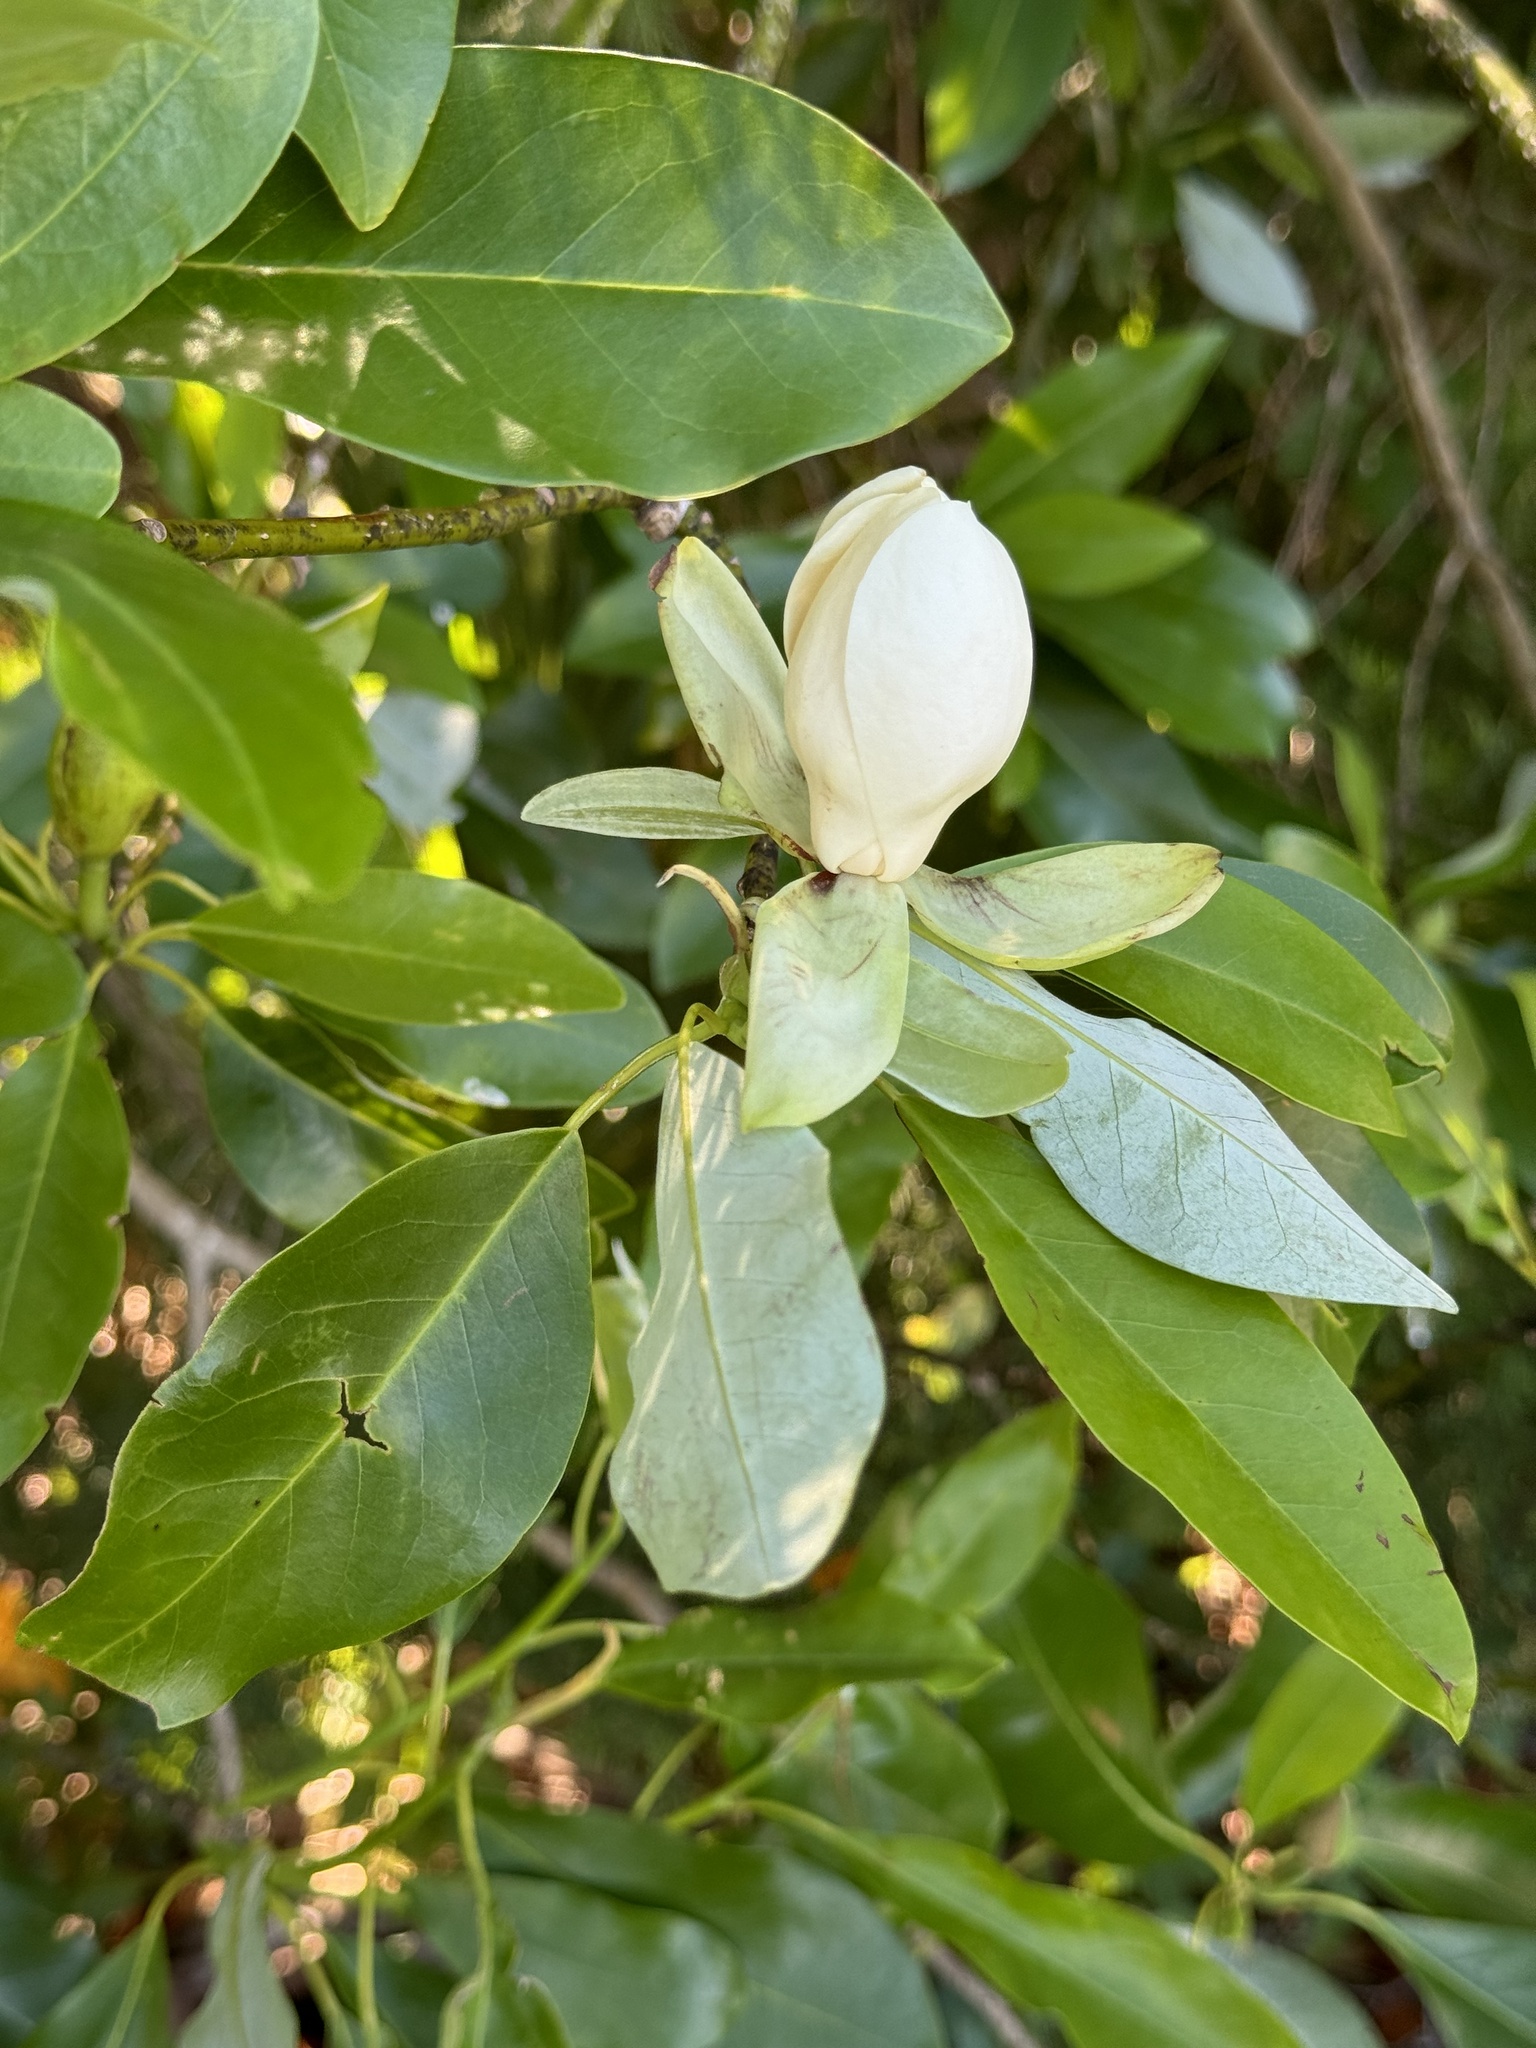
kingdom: Plantae
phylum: Tracheophyta
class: Magnoliopsida
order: Magnoliales
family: Magnoliaceae
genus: Magnolia
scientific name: Magnolia virginiana
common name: Swamp bay
